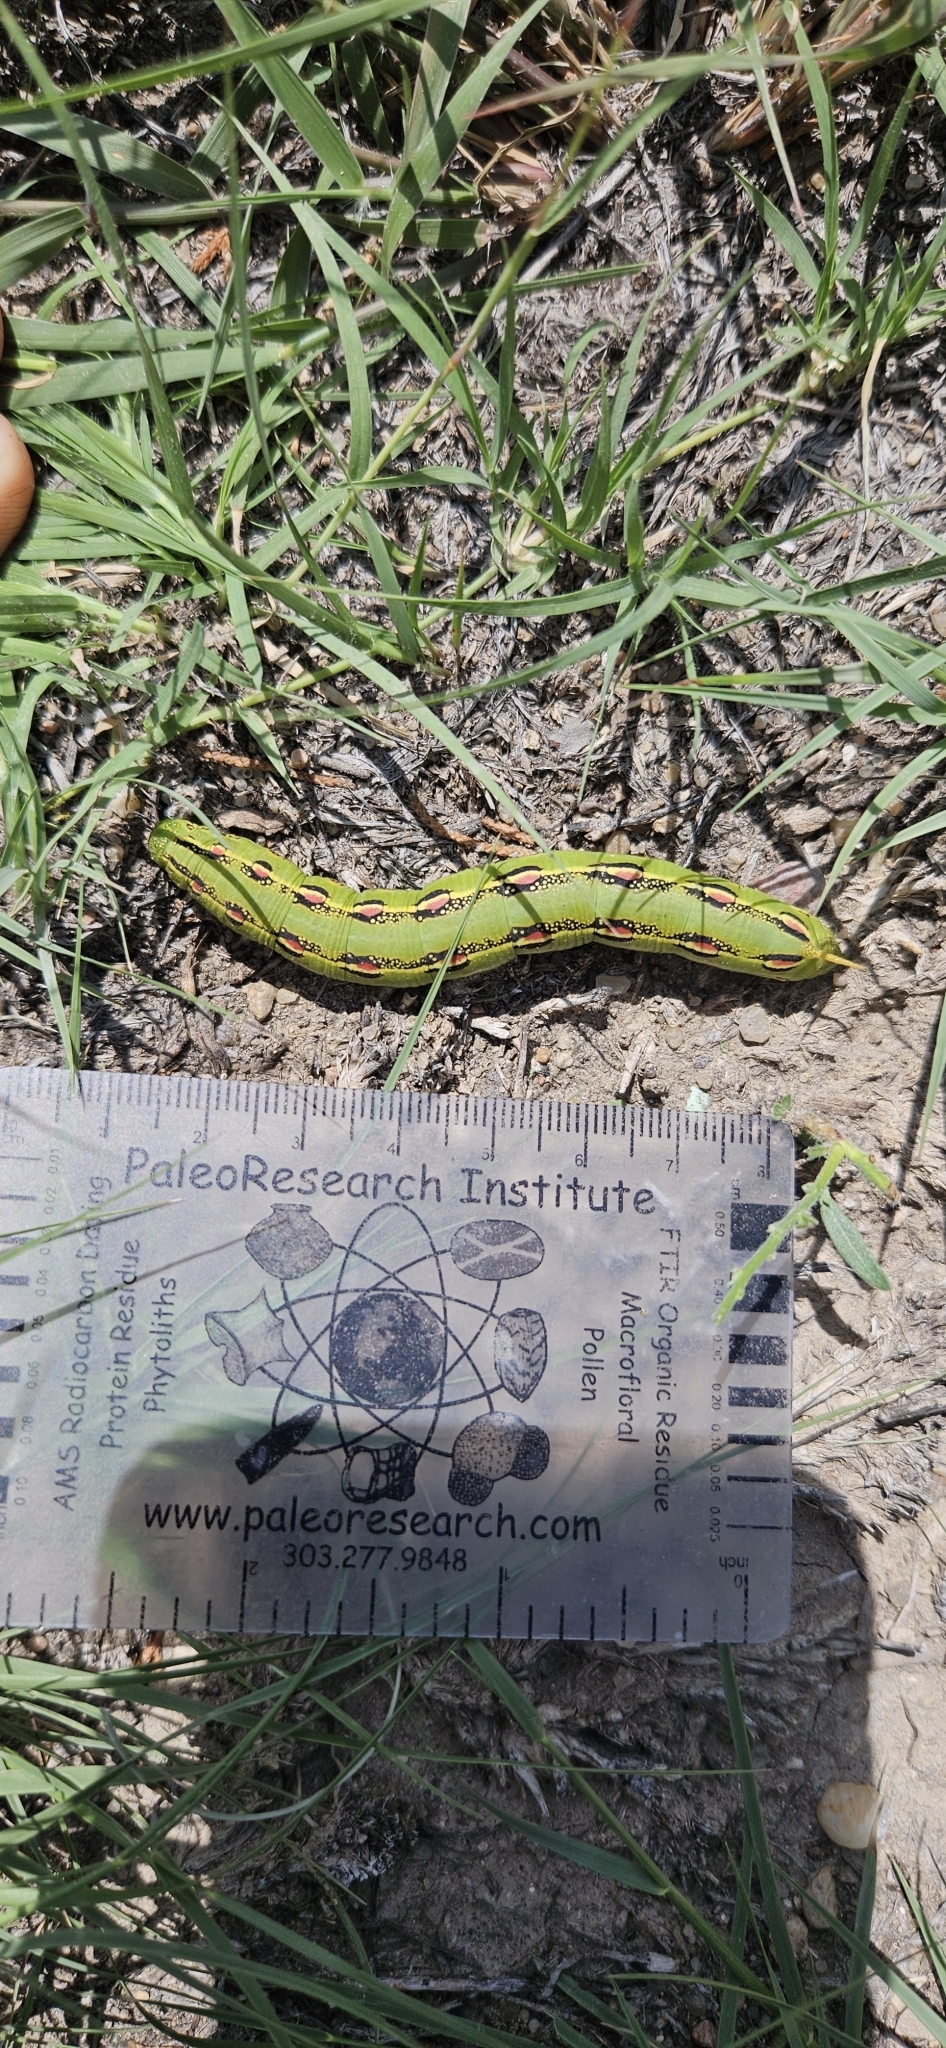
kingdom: Animalia
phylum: Arthropoda
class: Insecta
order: Lepidoptera
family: Sphingidae
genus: Hyles
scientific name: Hyles lineata
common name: White-lined sphinx
